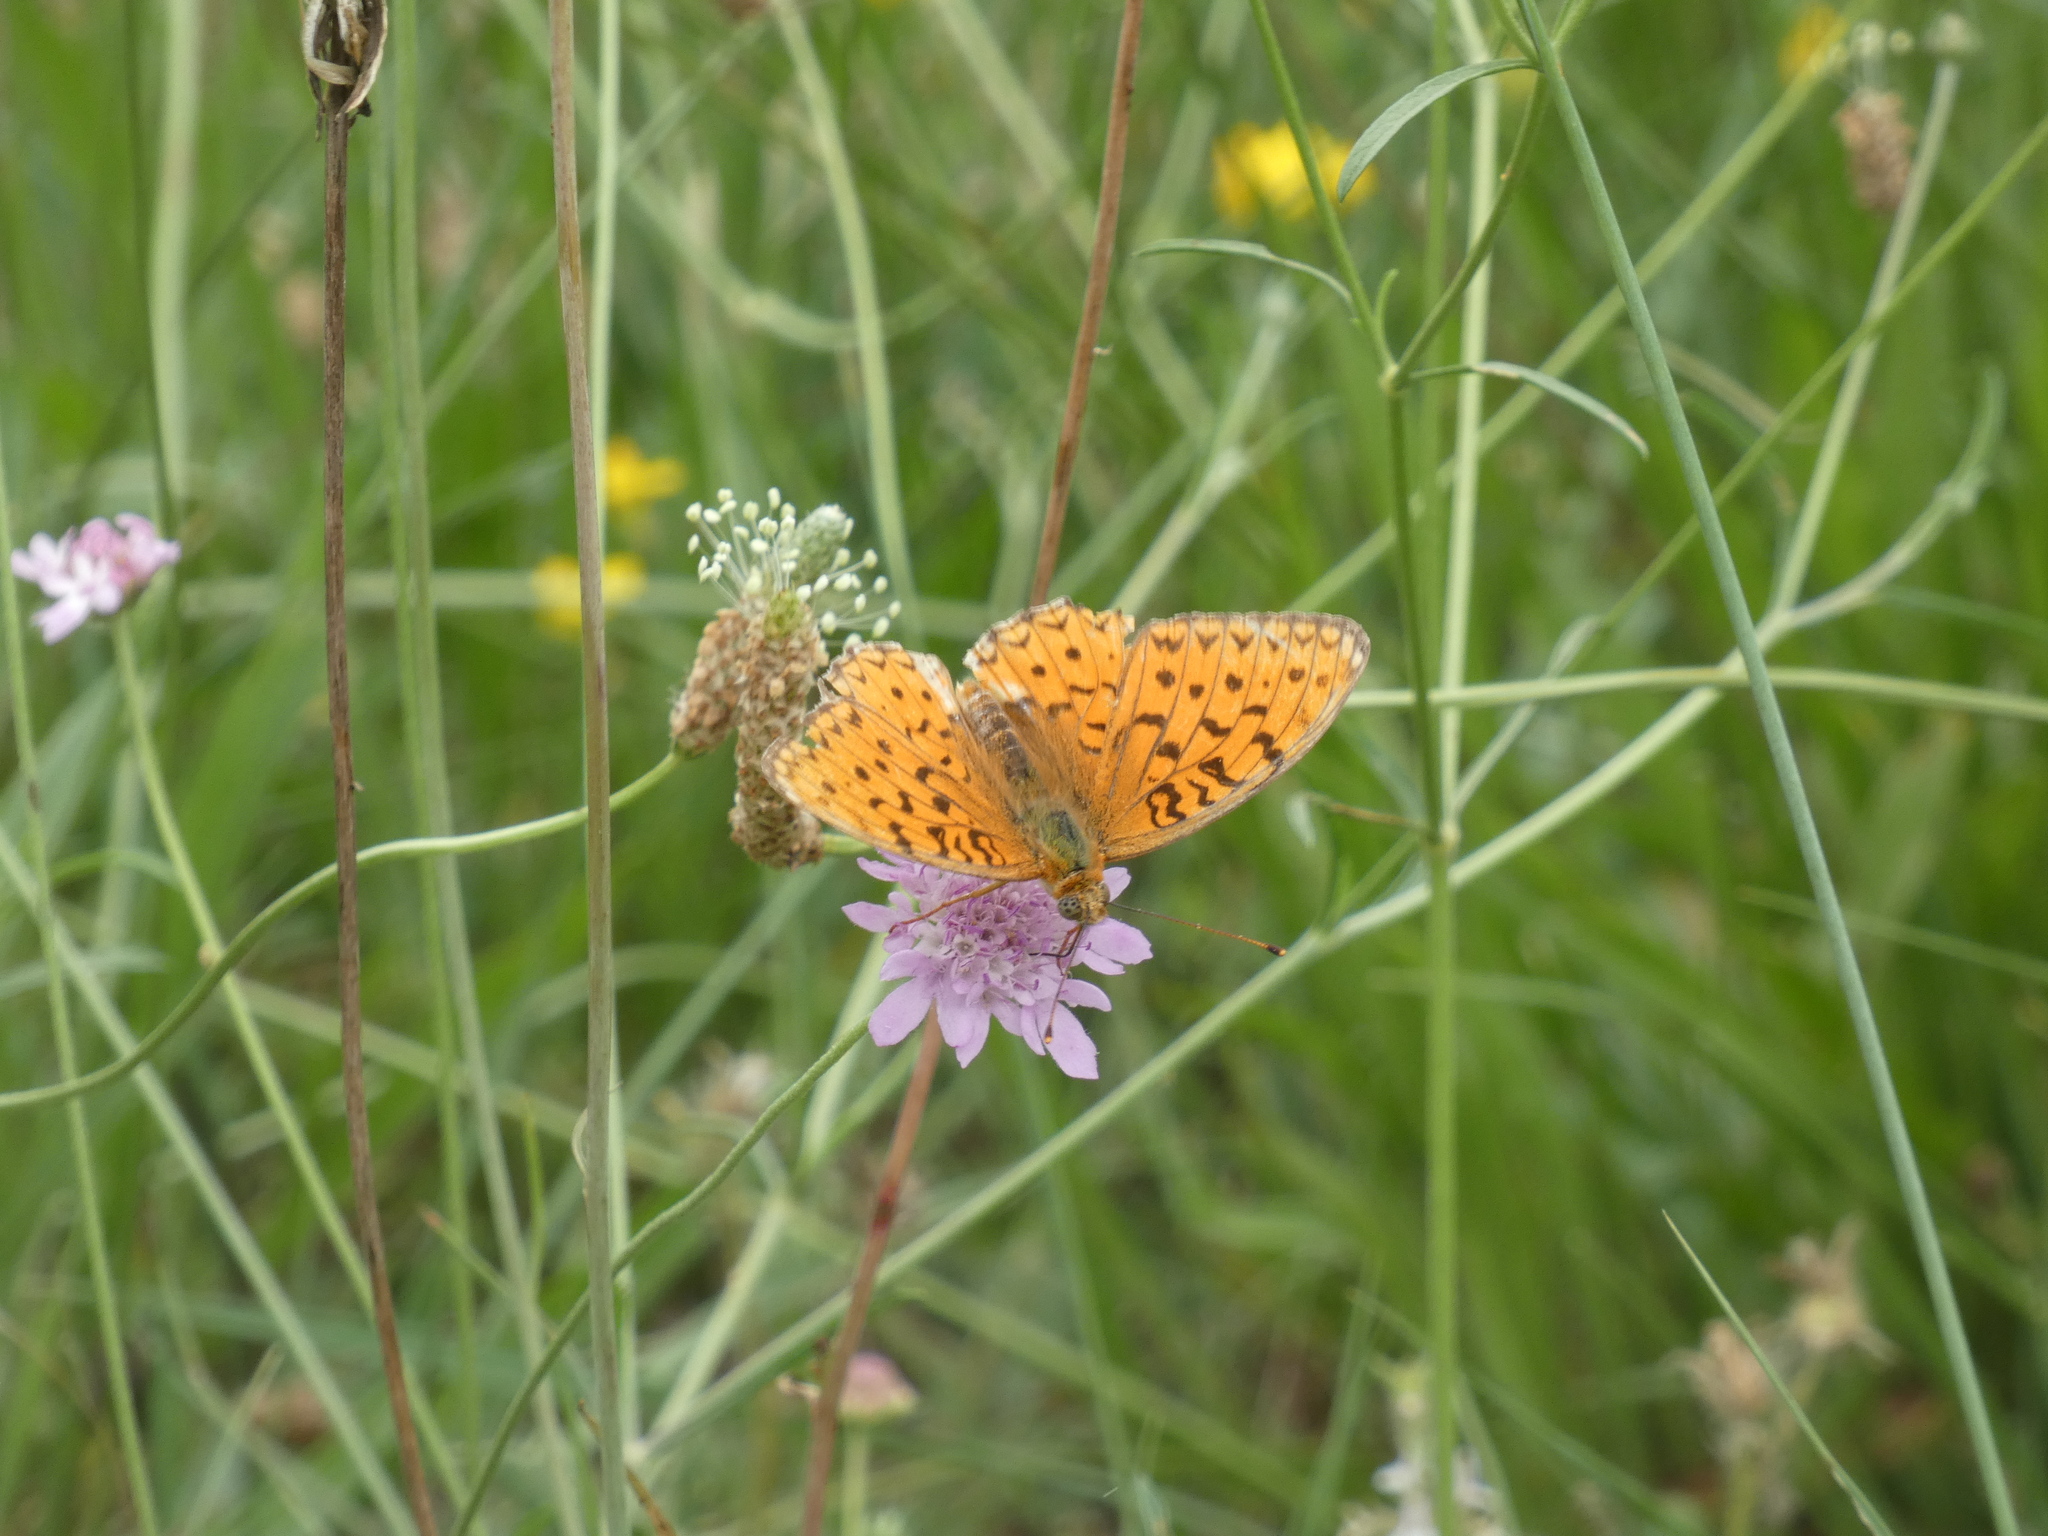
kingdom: Animalia
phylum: Arthropoda
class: Insecta
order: Lepidoptera
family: Nymphalidae
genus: Fabriciana
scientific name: Fabriciana niobe
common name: Niobe fritillary
